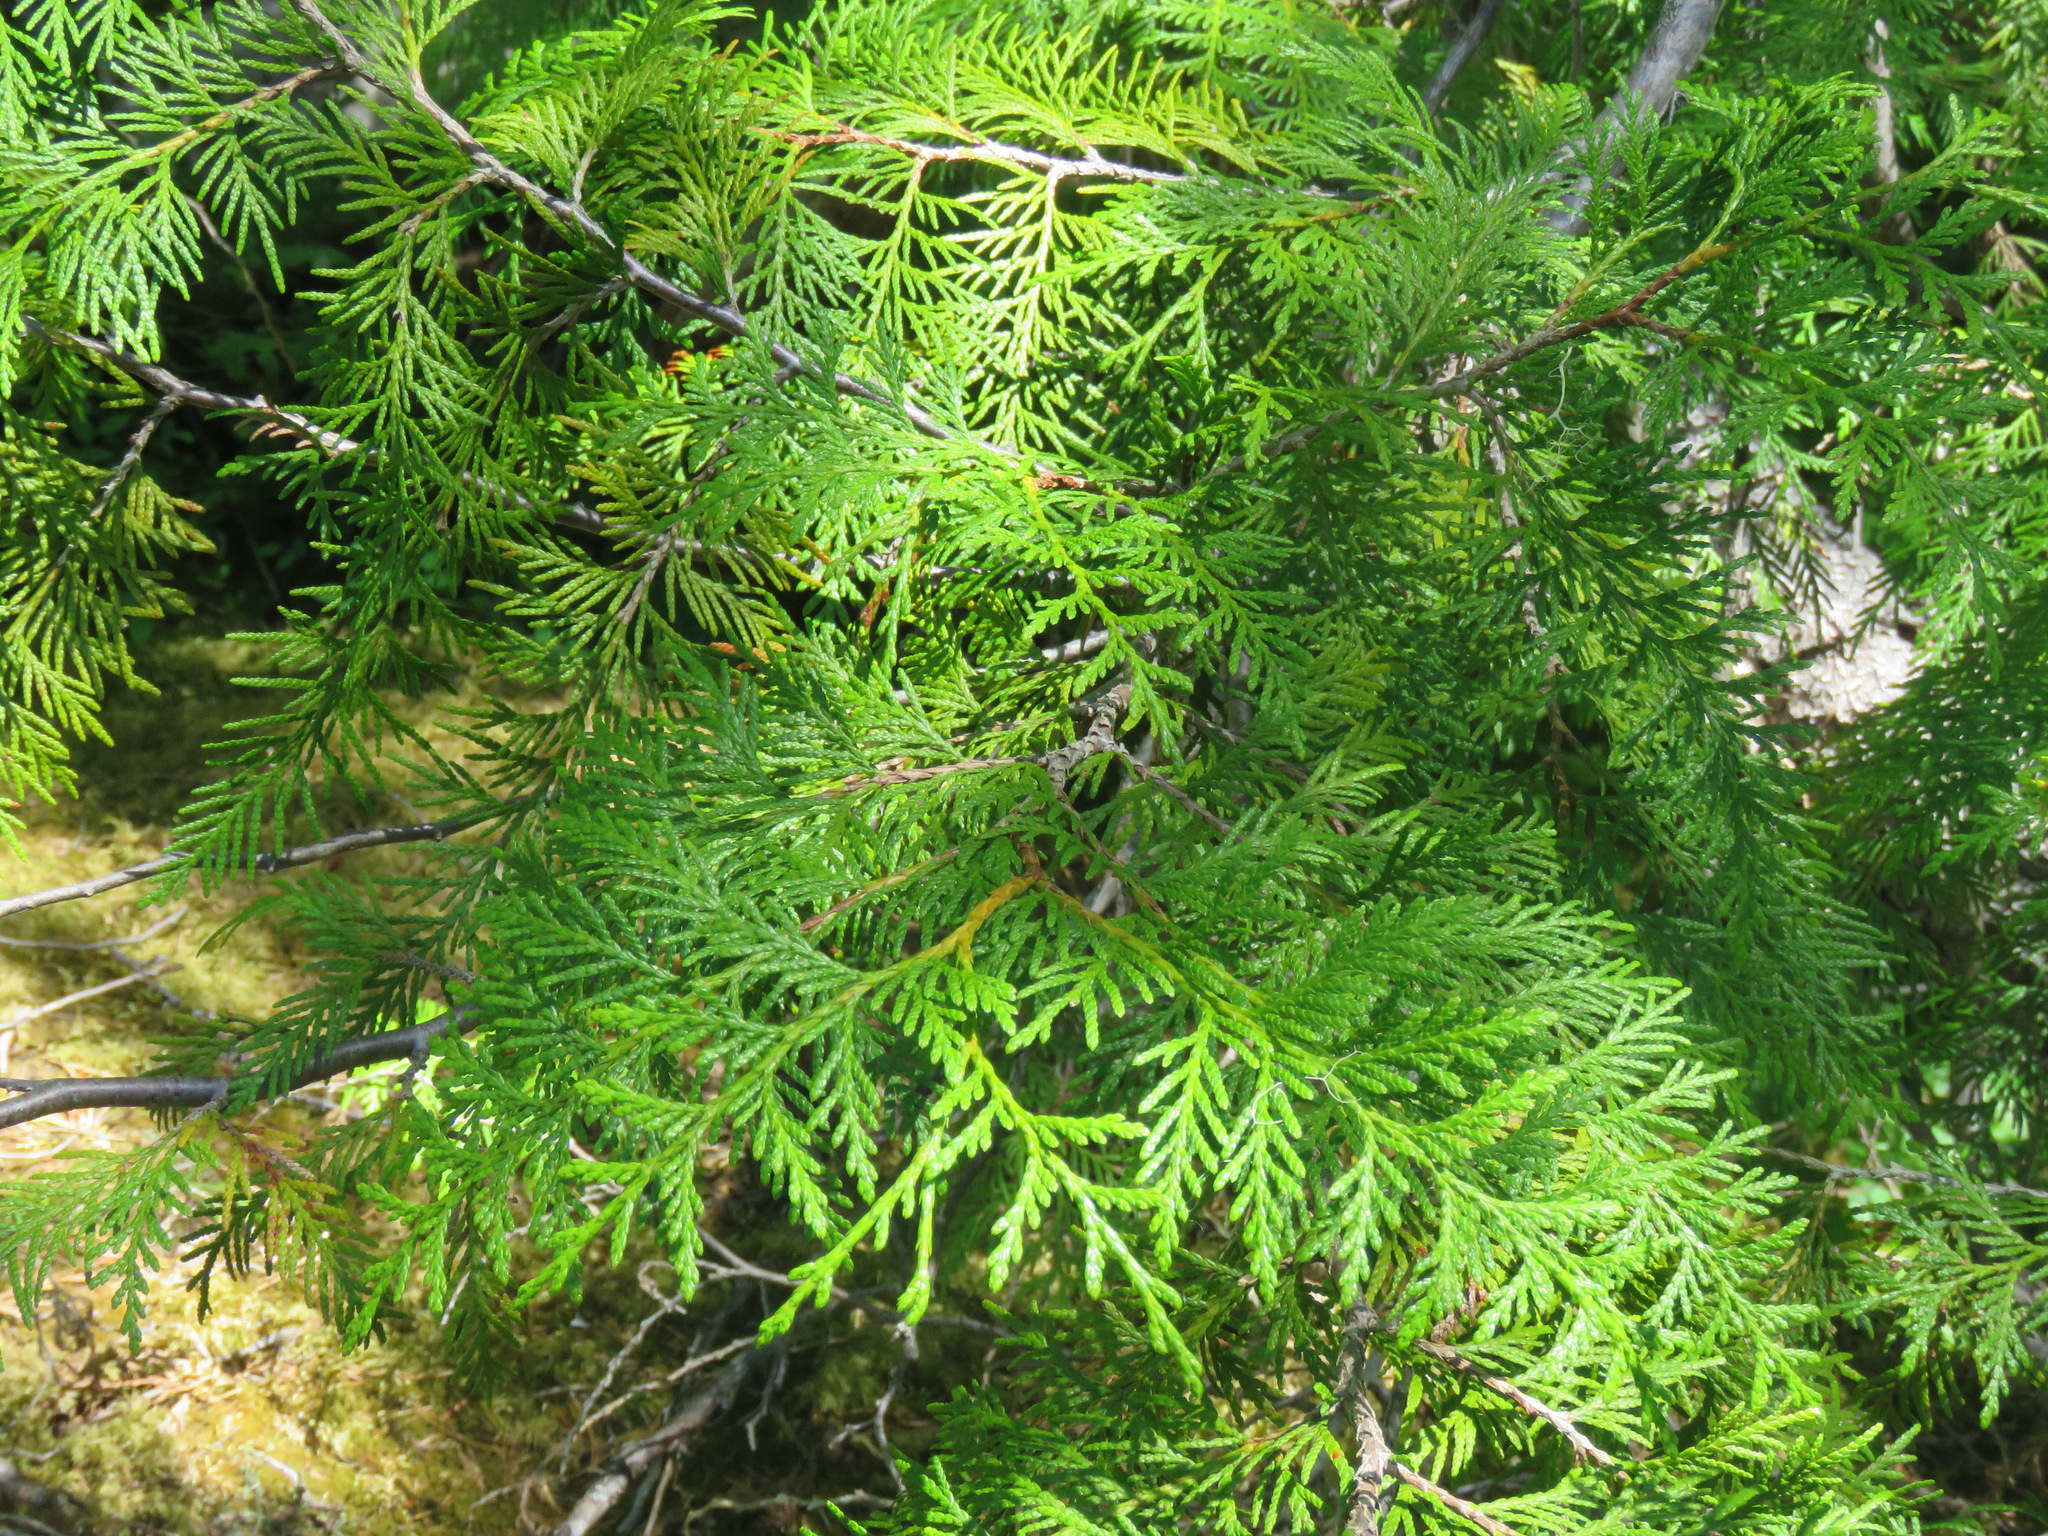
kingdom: Plantae
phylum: Tracheophyta
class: Pinopsida
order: Pinales
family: Cupressaceae
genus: Thuja
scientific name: Thuja plicata
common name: Western red-cedar
